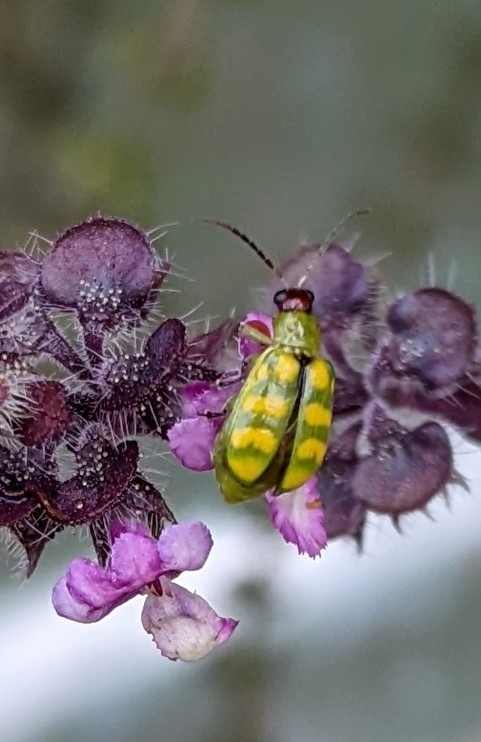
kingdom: Animalia
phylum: Arthropoda
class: Insecta
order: Coleoptera
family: Chrysomelidae
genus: Diabrotica
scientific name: Diabrotica balteata
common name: Leaf beetle
